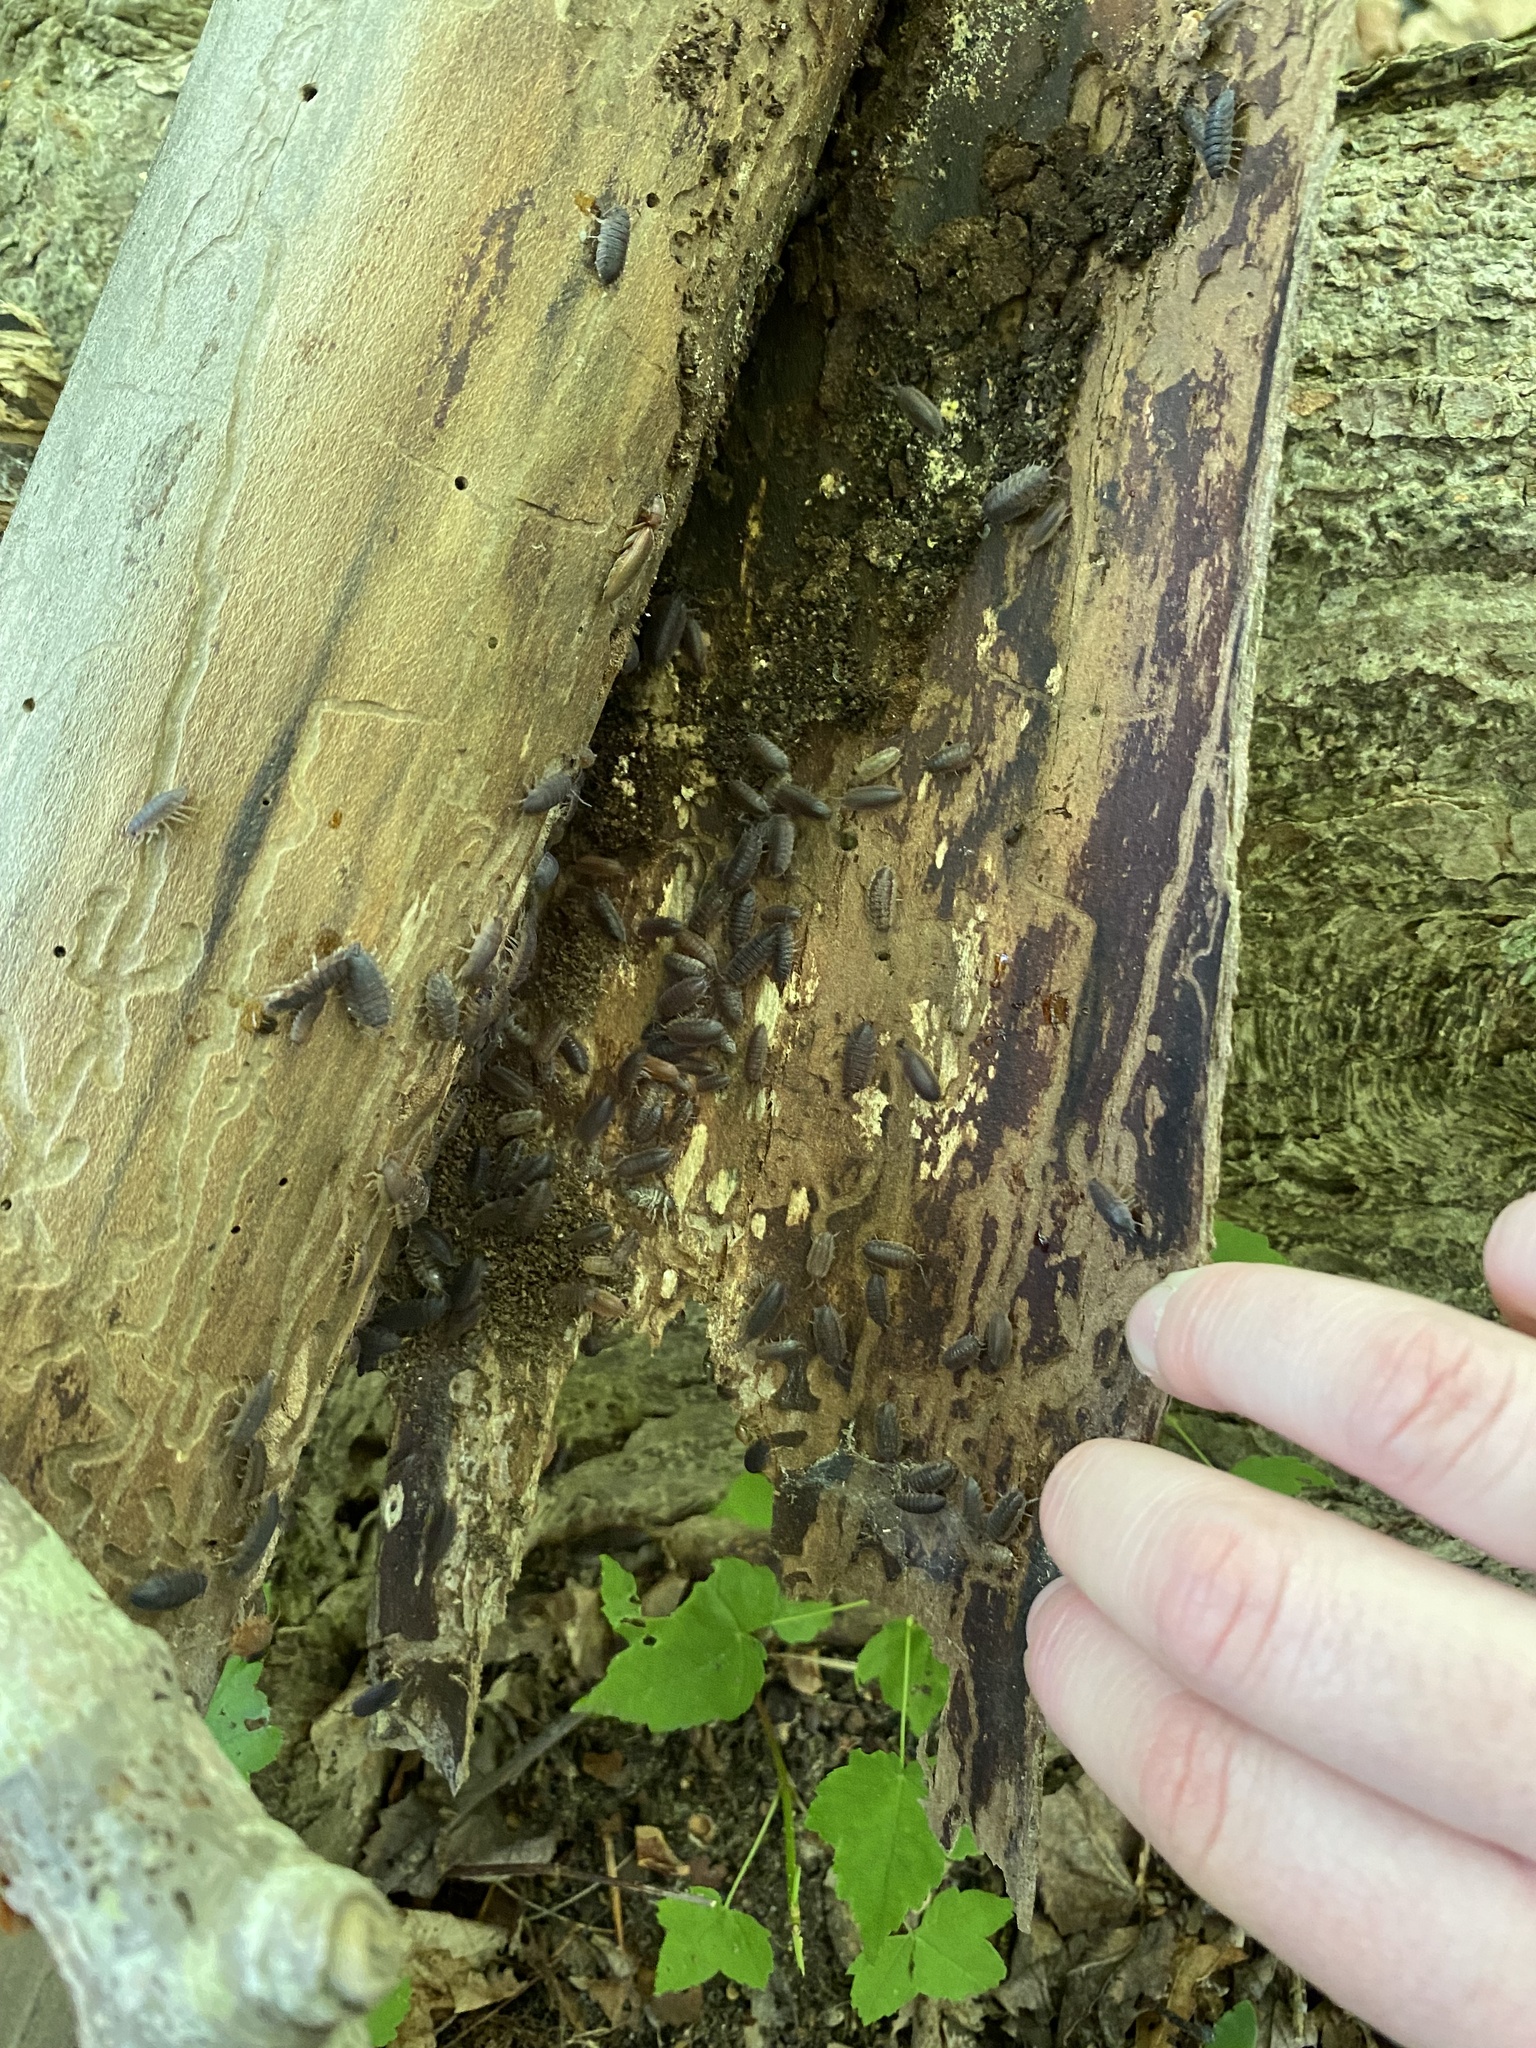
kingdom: Animalia
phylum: Arthropoda
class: Malacostraca
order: Isopoda
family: Porcellionidae
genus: Porcellio
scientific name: Porcellio scaber
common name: Common rough woodlouse
